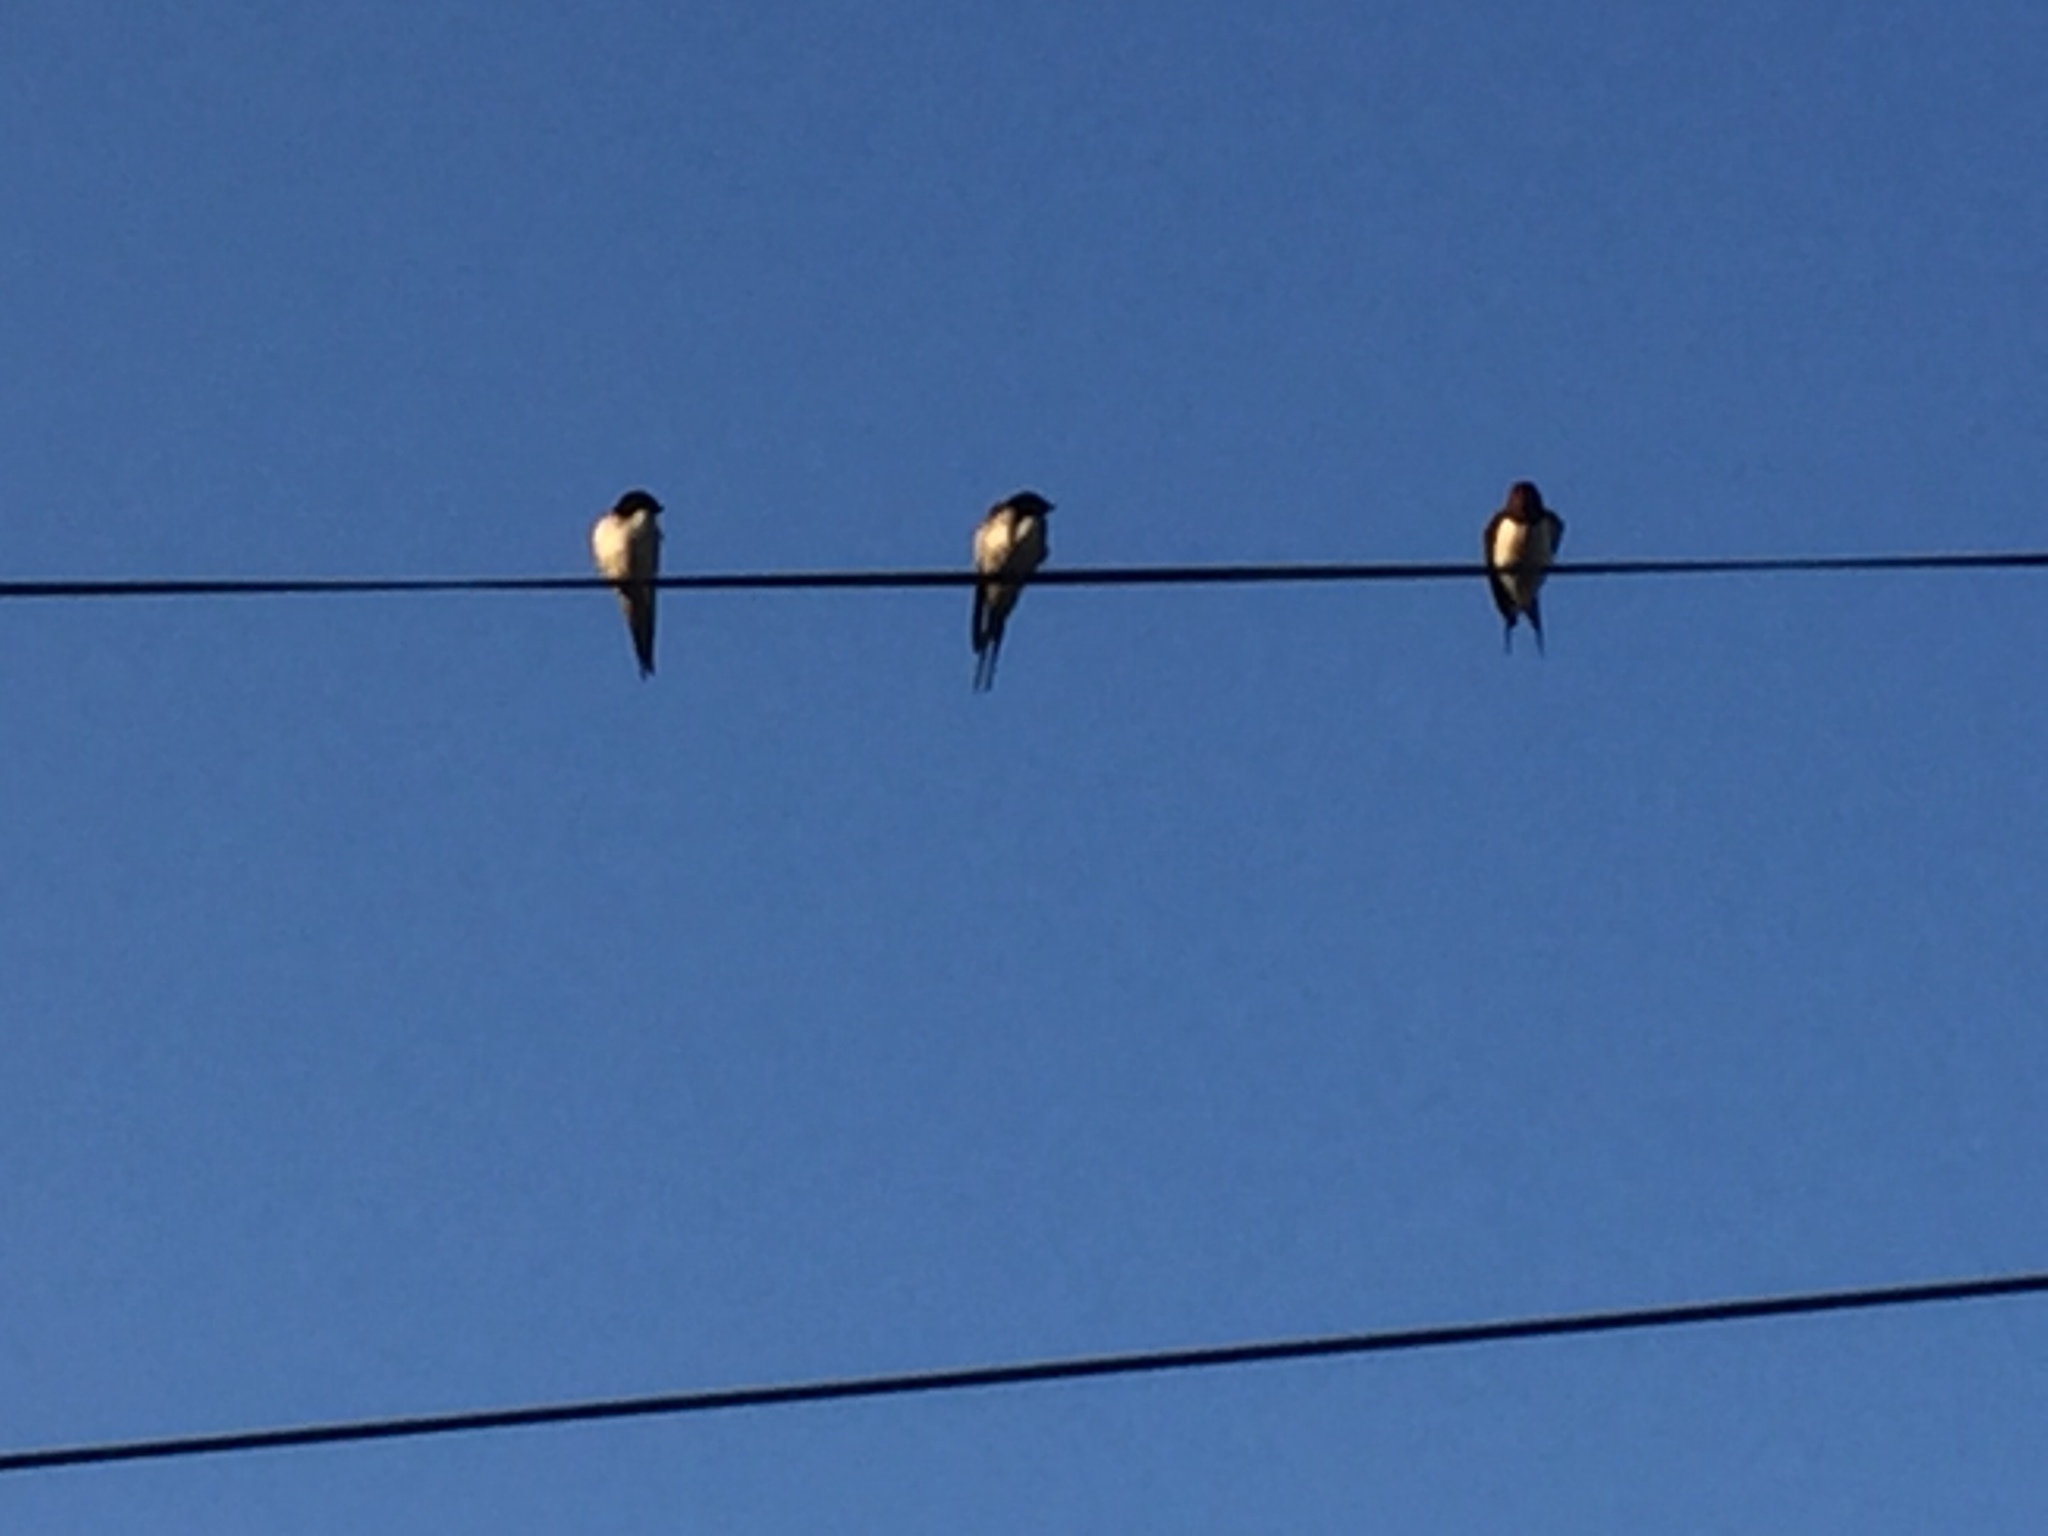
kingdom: Animalia
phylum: Chordata
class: Aves
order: Passeriformes
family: Hirundinidae
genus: Hirundo
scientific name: Hirundo rustica
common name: Barn swallow
